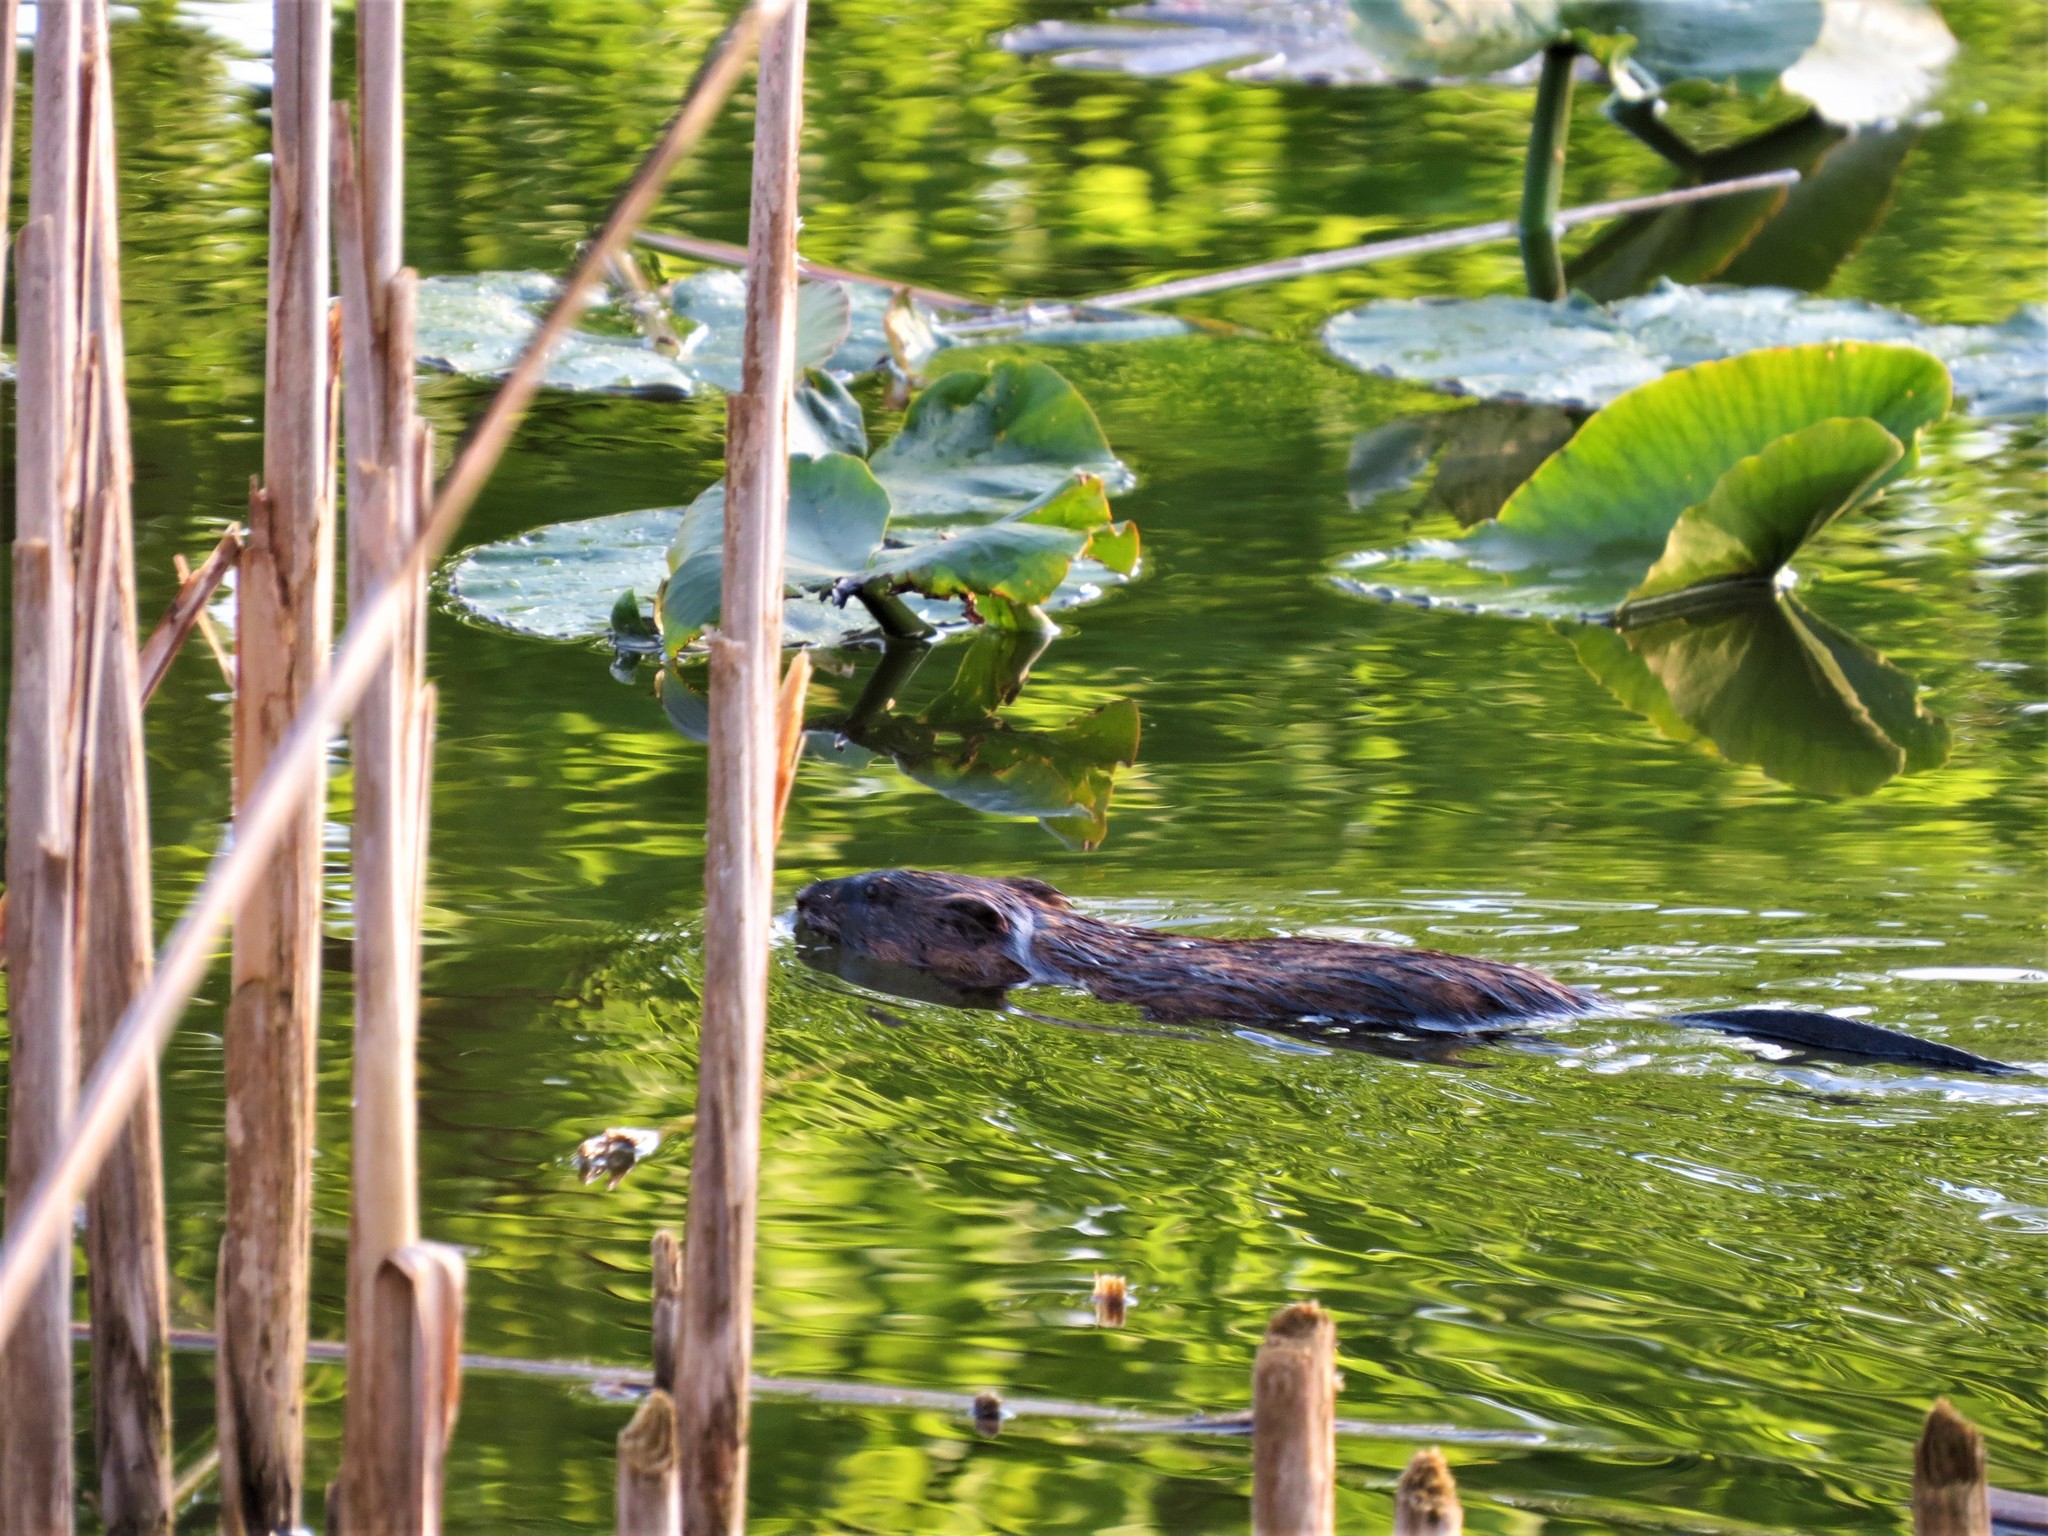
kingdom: Animalia
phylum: Chordata
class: Mammalia
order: Rodentia
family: Cricetidae
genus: Ondatra
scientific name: Ondatra zibethicus
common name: Muskrat
